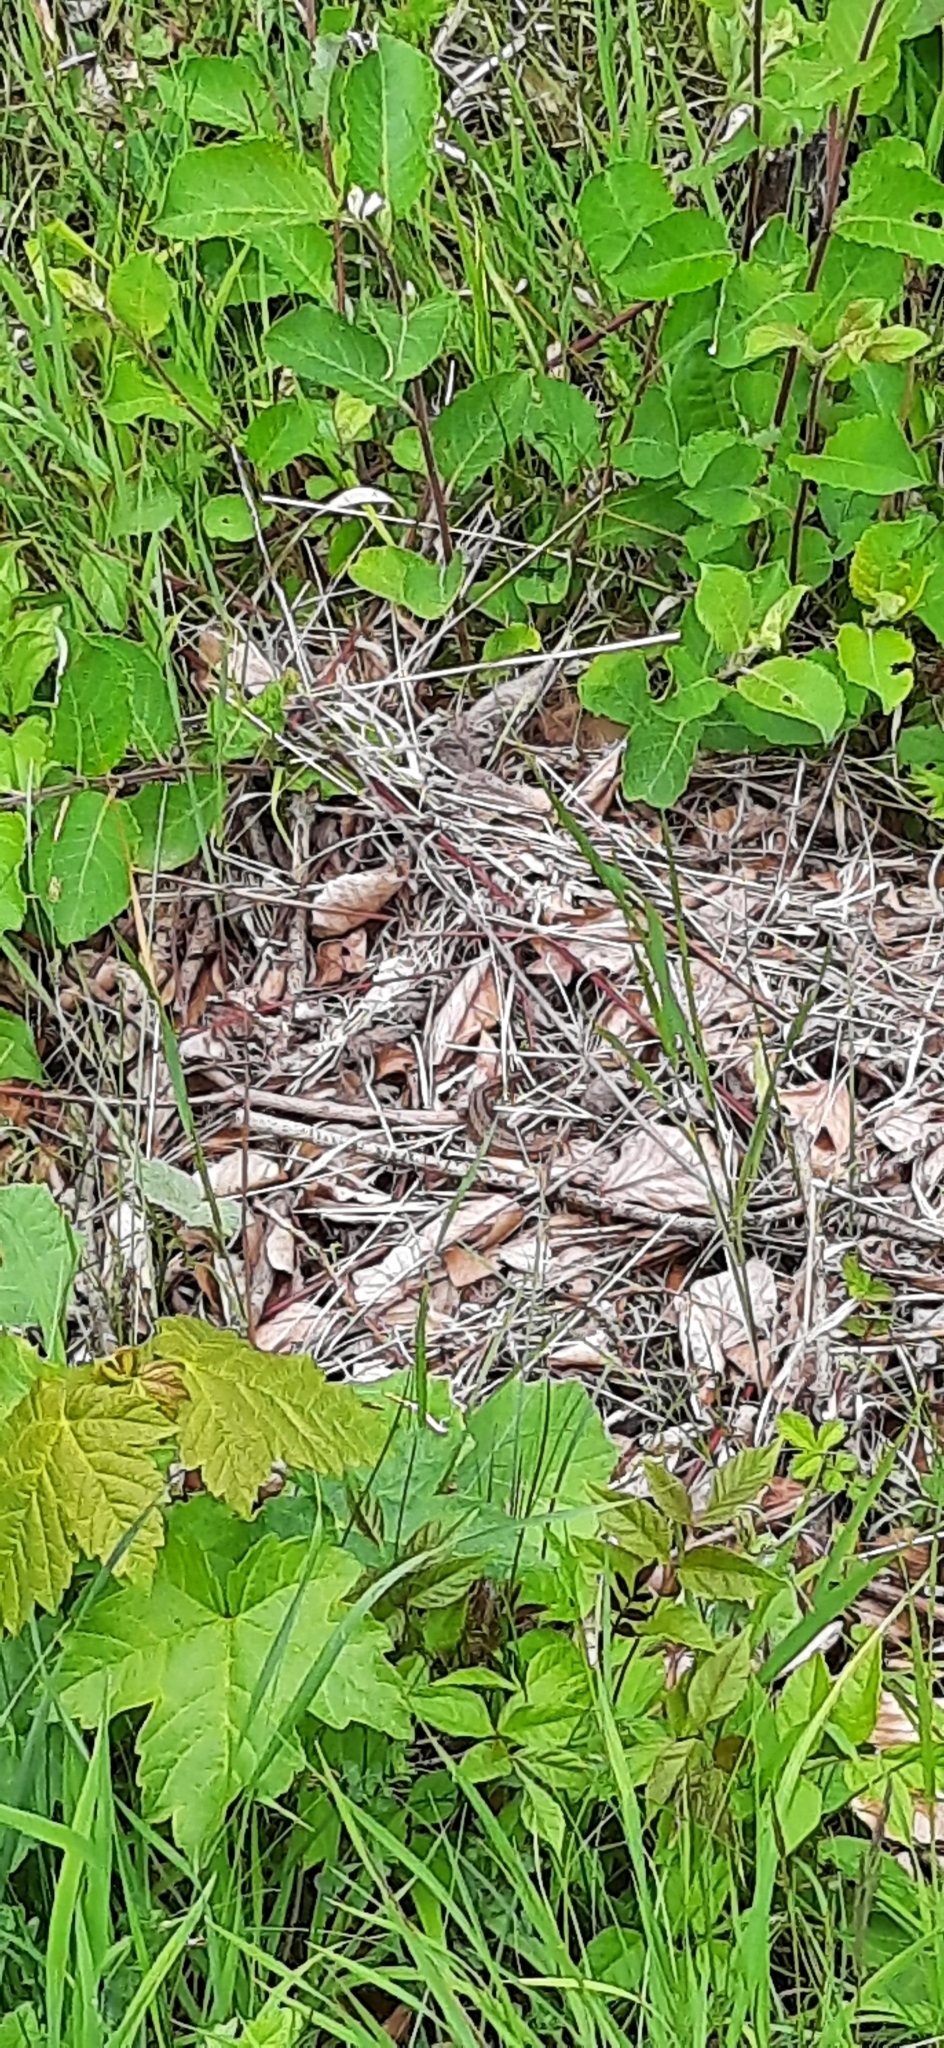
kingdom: Animalia
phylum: Chordata
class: Squamata
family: Lacertidae
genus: Zootoca
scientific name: Zootoca vivipara
